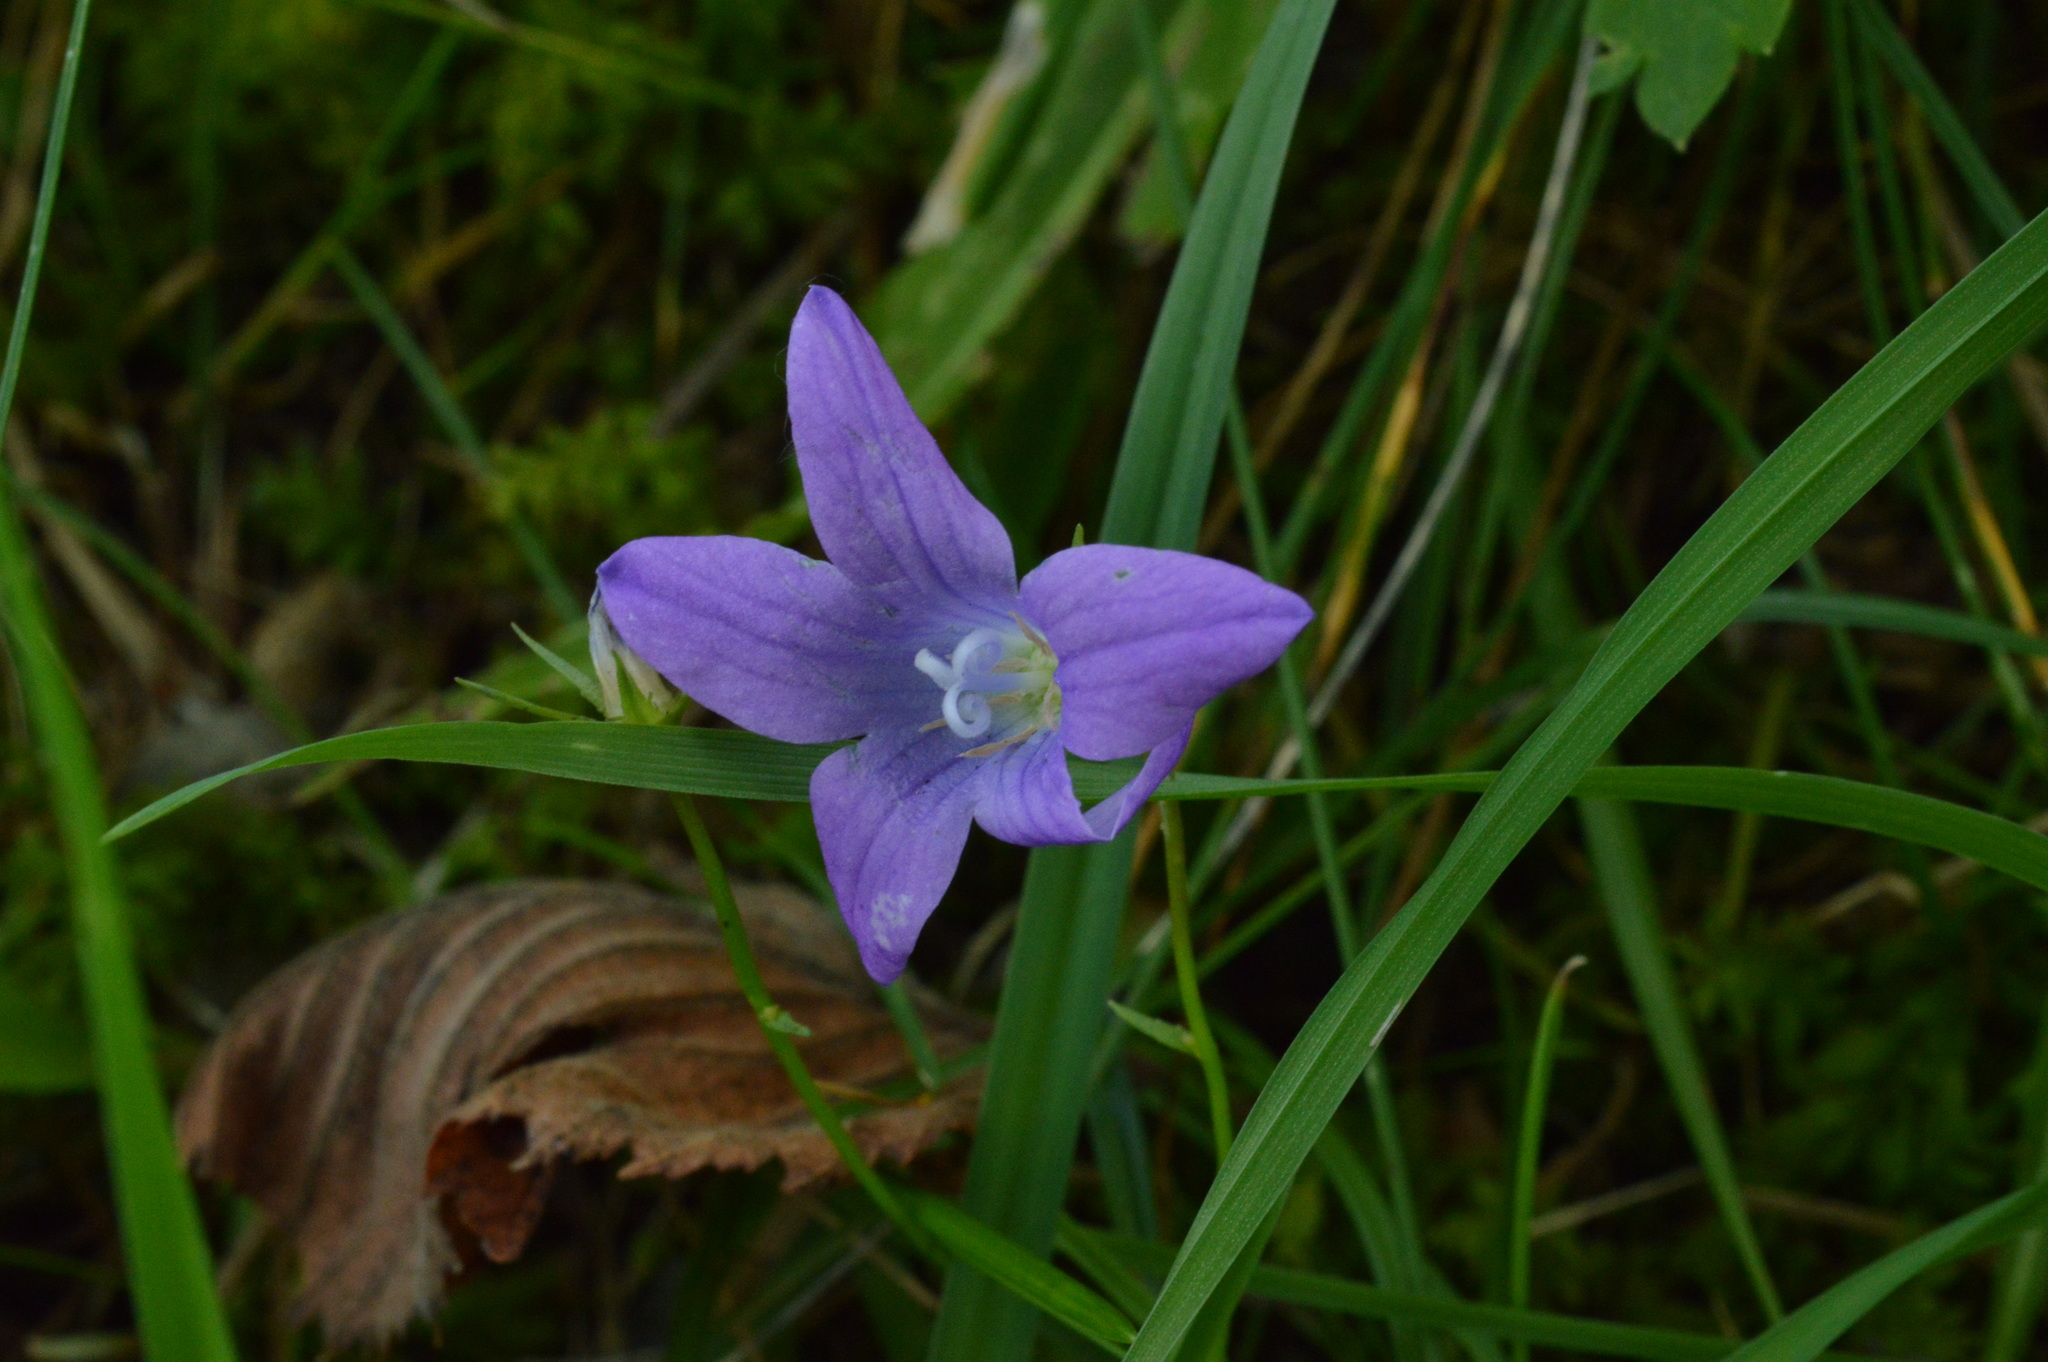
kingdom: Plantae
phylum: Tracheophyta
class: Magnoliopsida
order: Asterales
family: Campanulaceae
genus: Campanula
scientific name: Campanula patula
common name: Spreading bellflower
